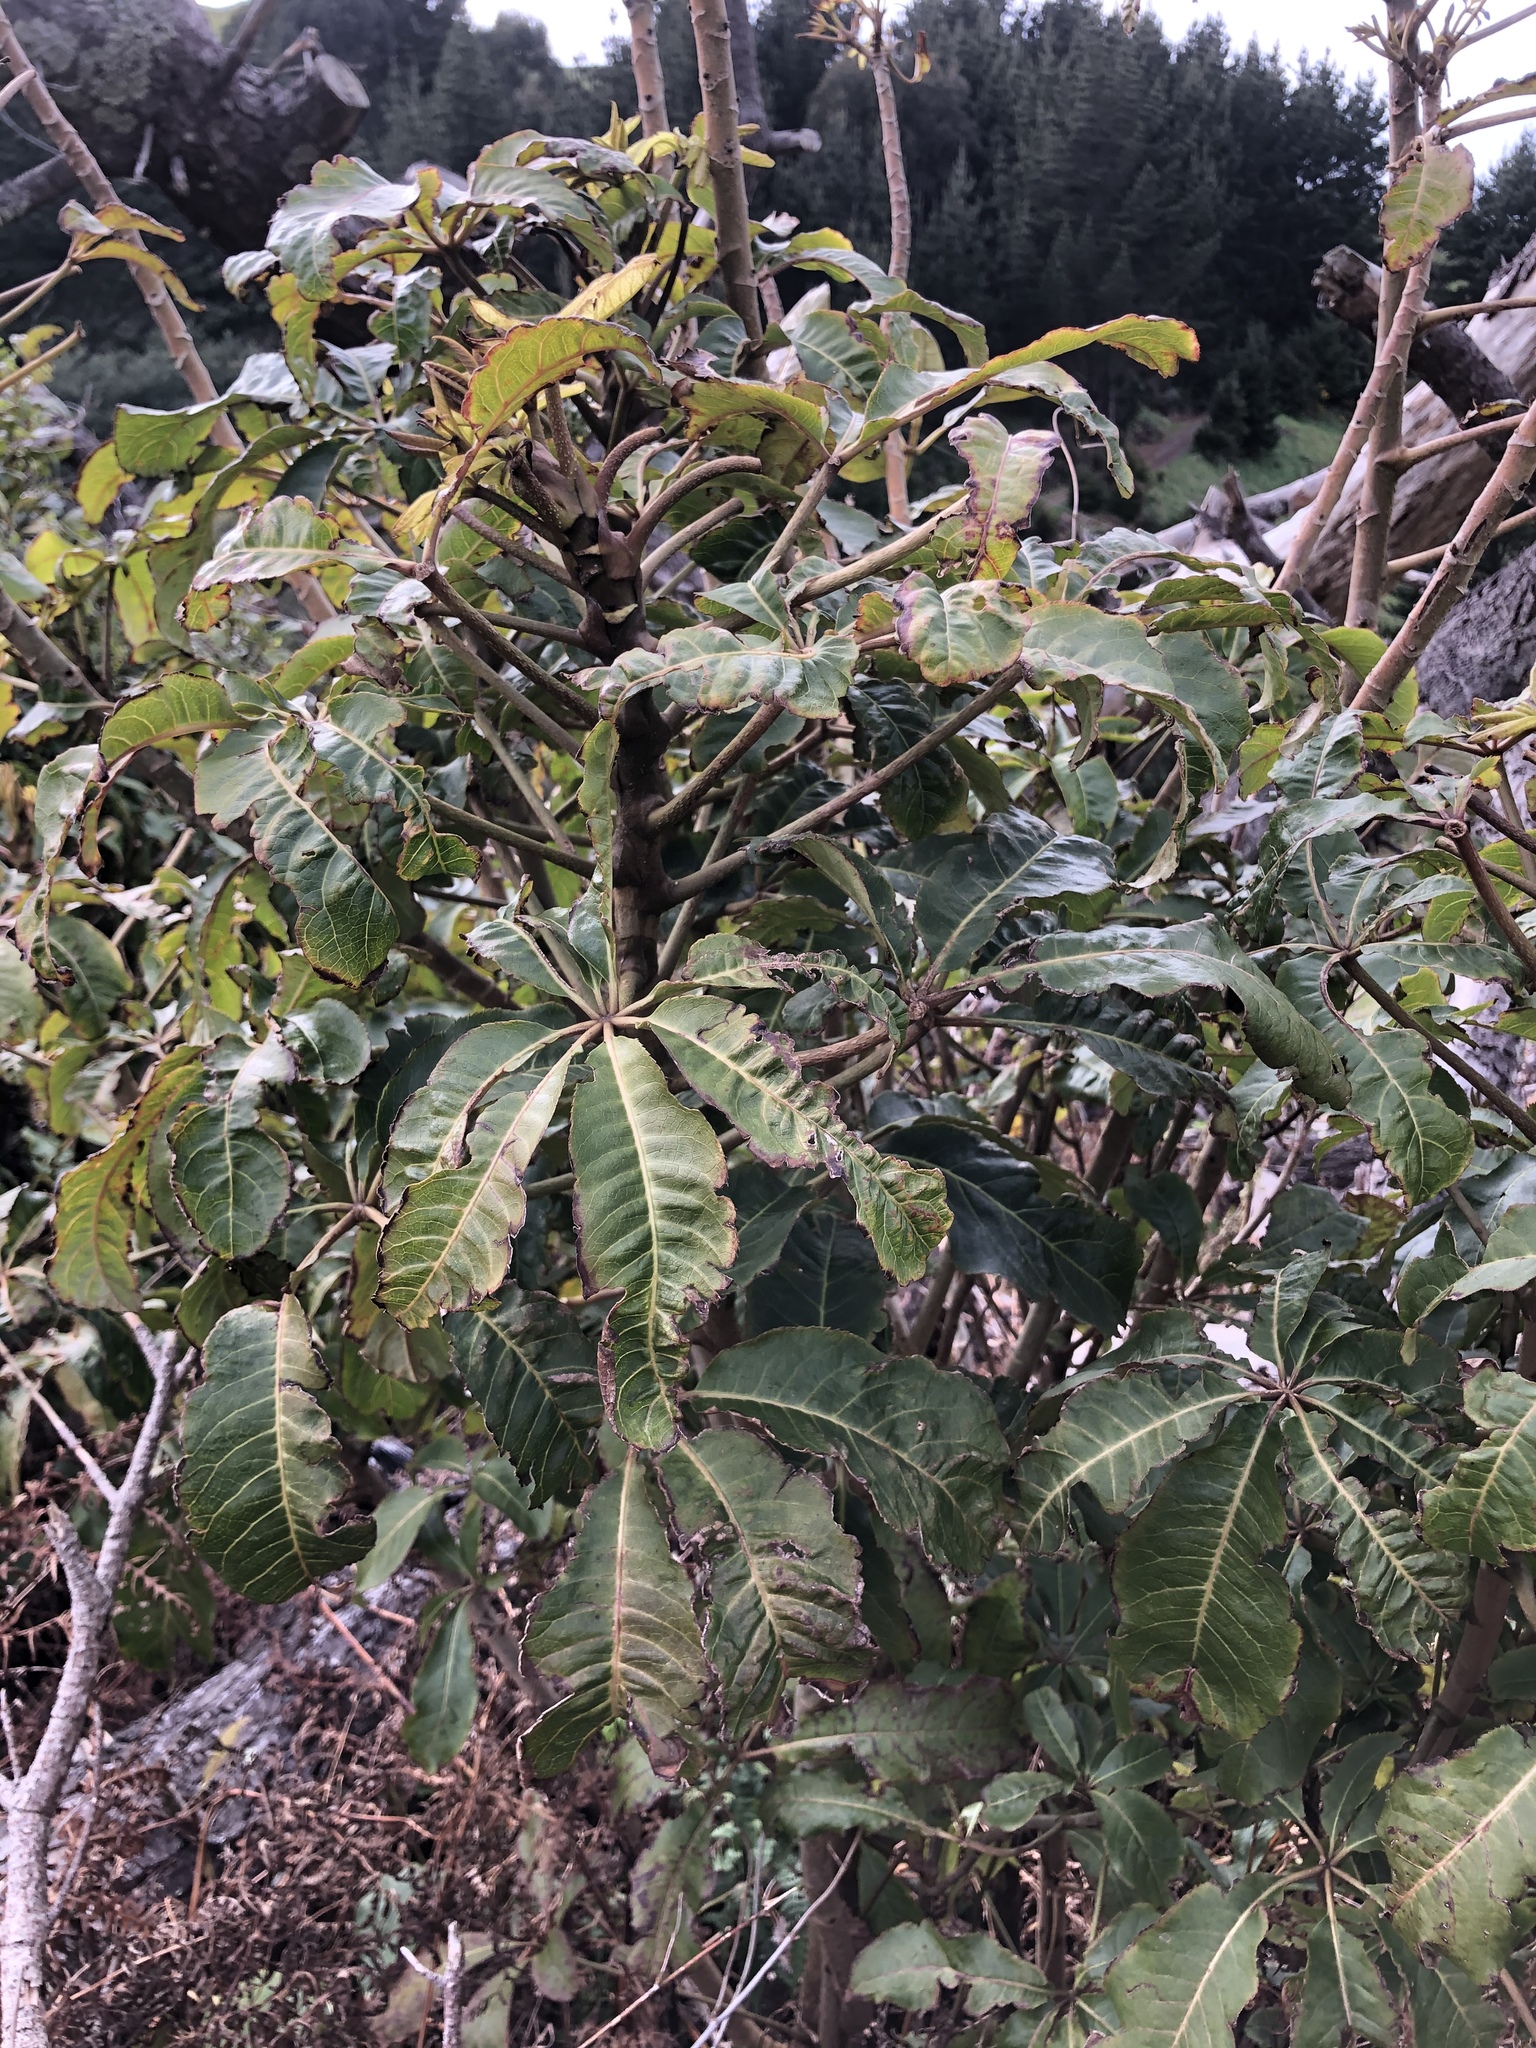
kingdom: Plantae
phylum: Tracheophyta
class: Magnoliopsida
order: Apiales
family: Araliaceae
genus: Schefflera
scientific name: Schefflera digitata
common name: Pate
